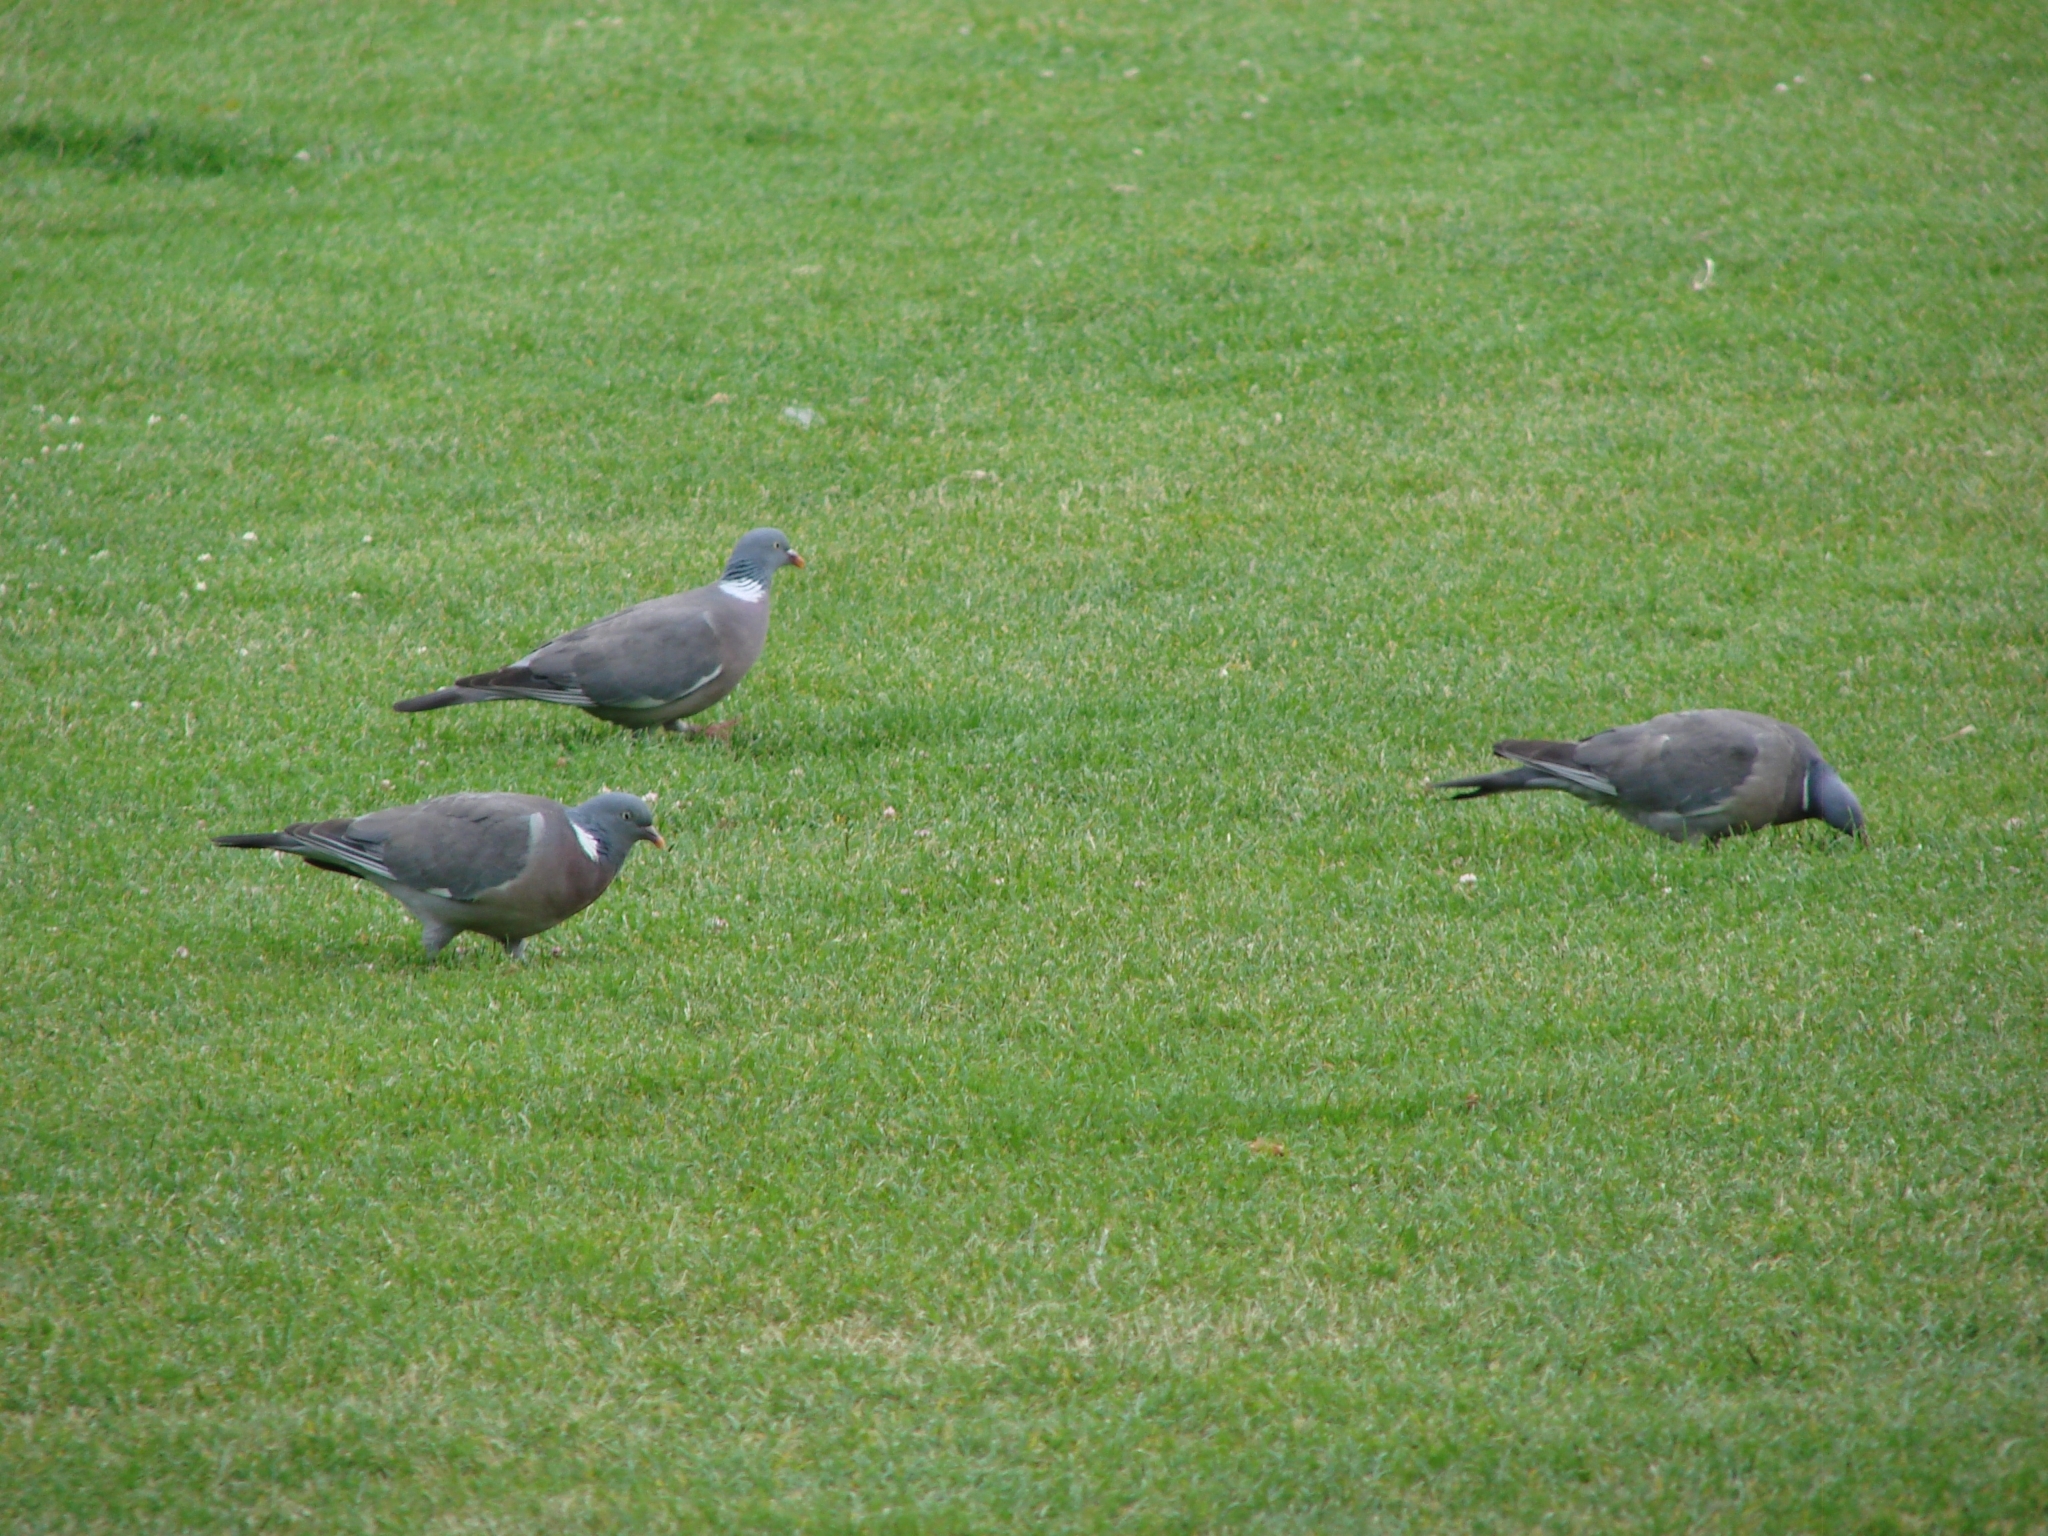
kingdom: Animalia
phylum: Chordata
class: Aves
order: Columbiformes
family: Columbidae
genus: Columba
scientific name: Columba palumbus
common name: Common wood pigeon
